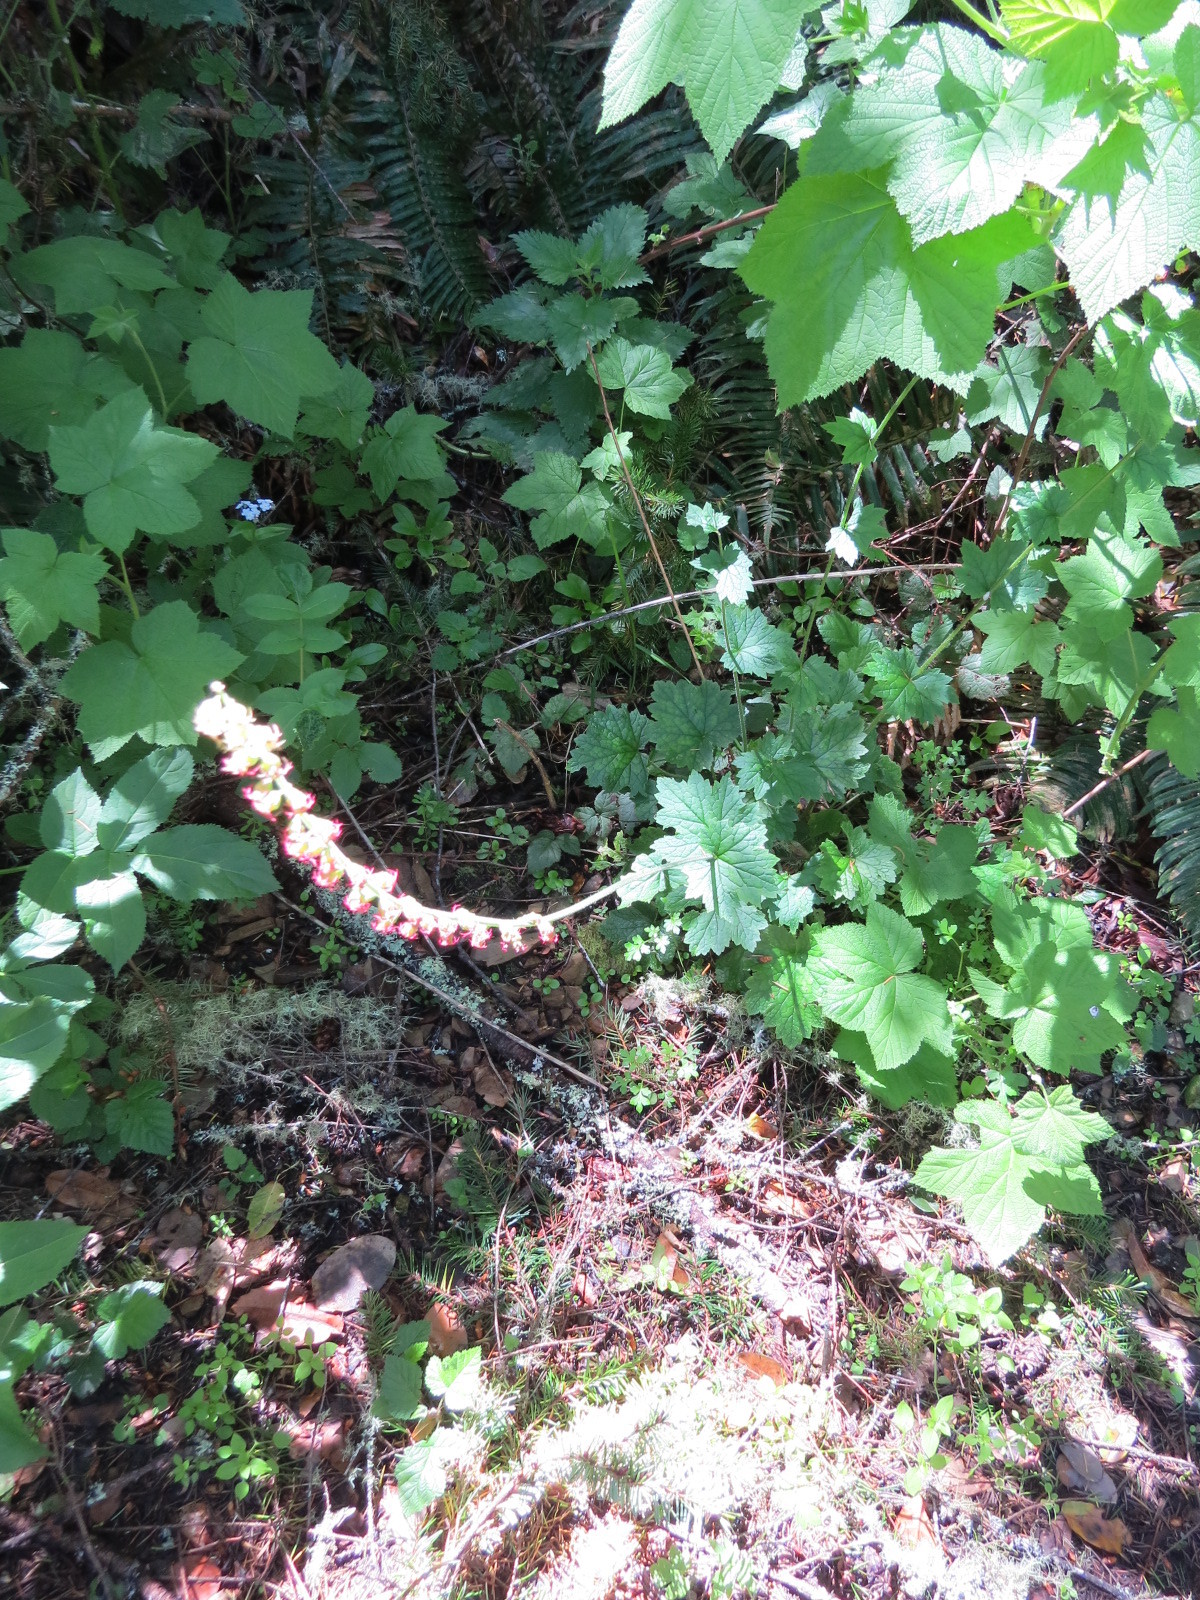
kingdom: Plantae
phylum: Tracheophyta
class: Magnoliopsida
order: Saxifragales
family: Saxifragaceae
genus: Tellima
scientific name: Tellima grandiflora
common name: Fringecups
